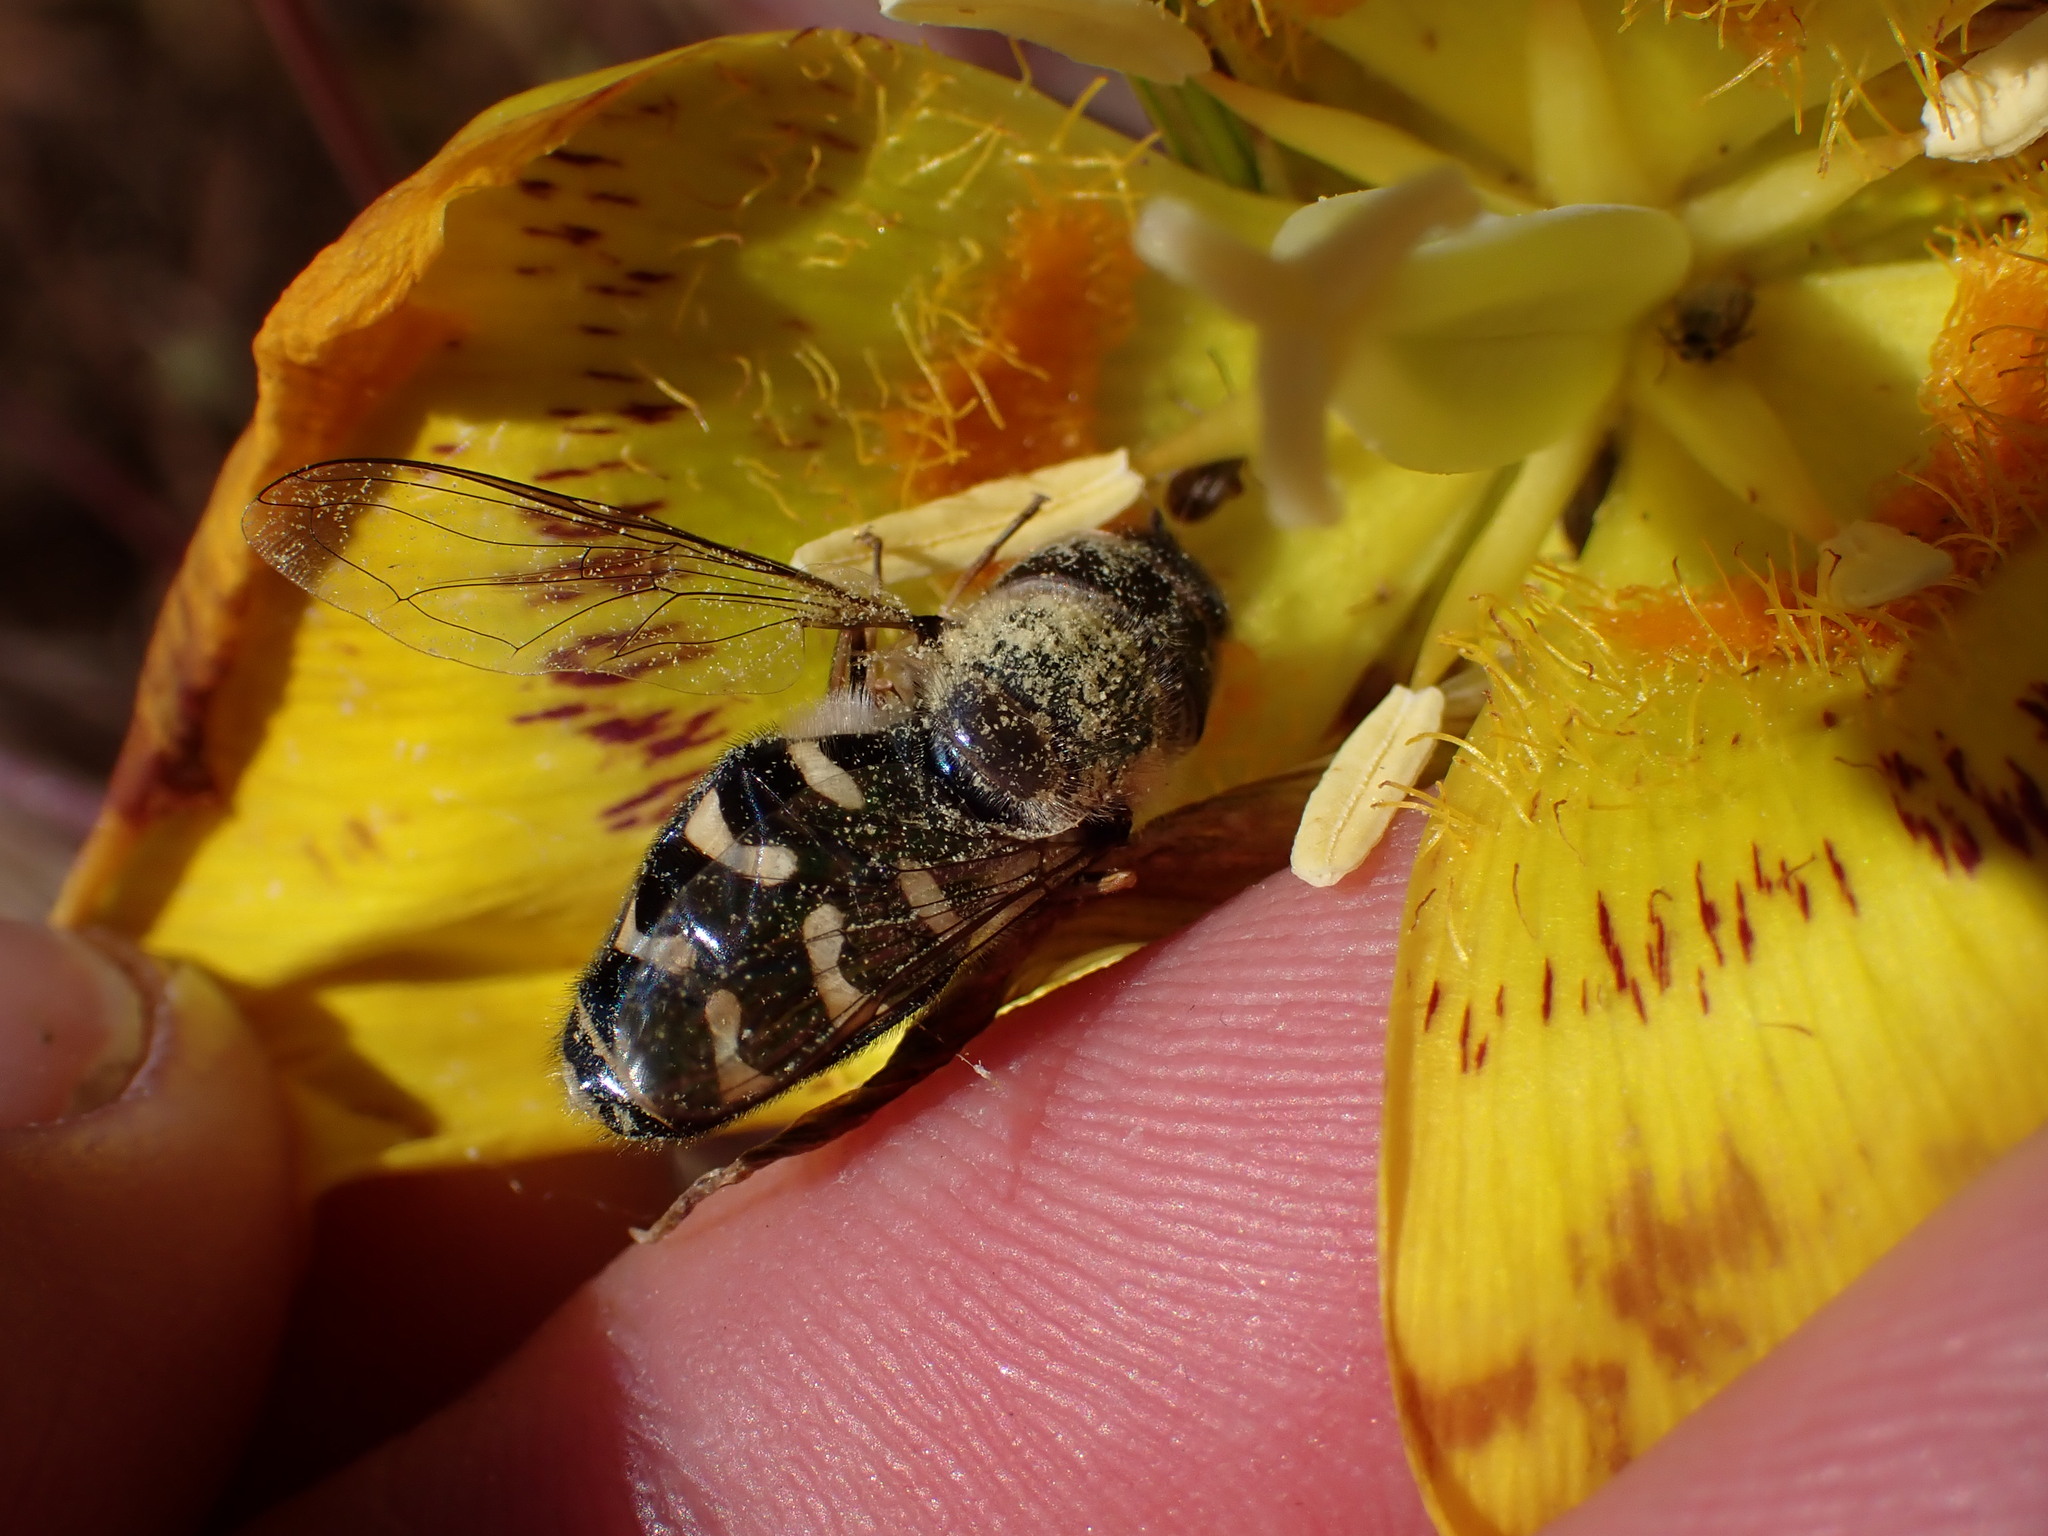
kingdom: Animalia
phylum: Arthropoda
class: Insecta
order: Diptera
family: Syrphidae
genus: Scaeva
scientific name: Scaeva affinis
